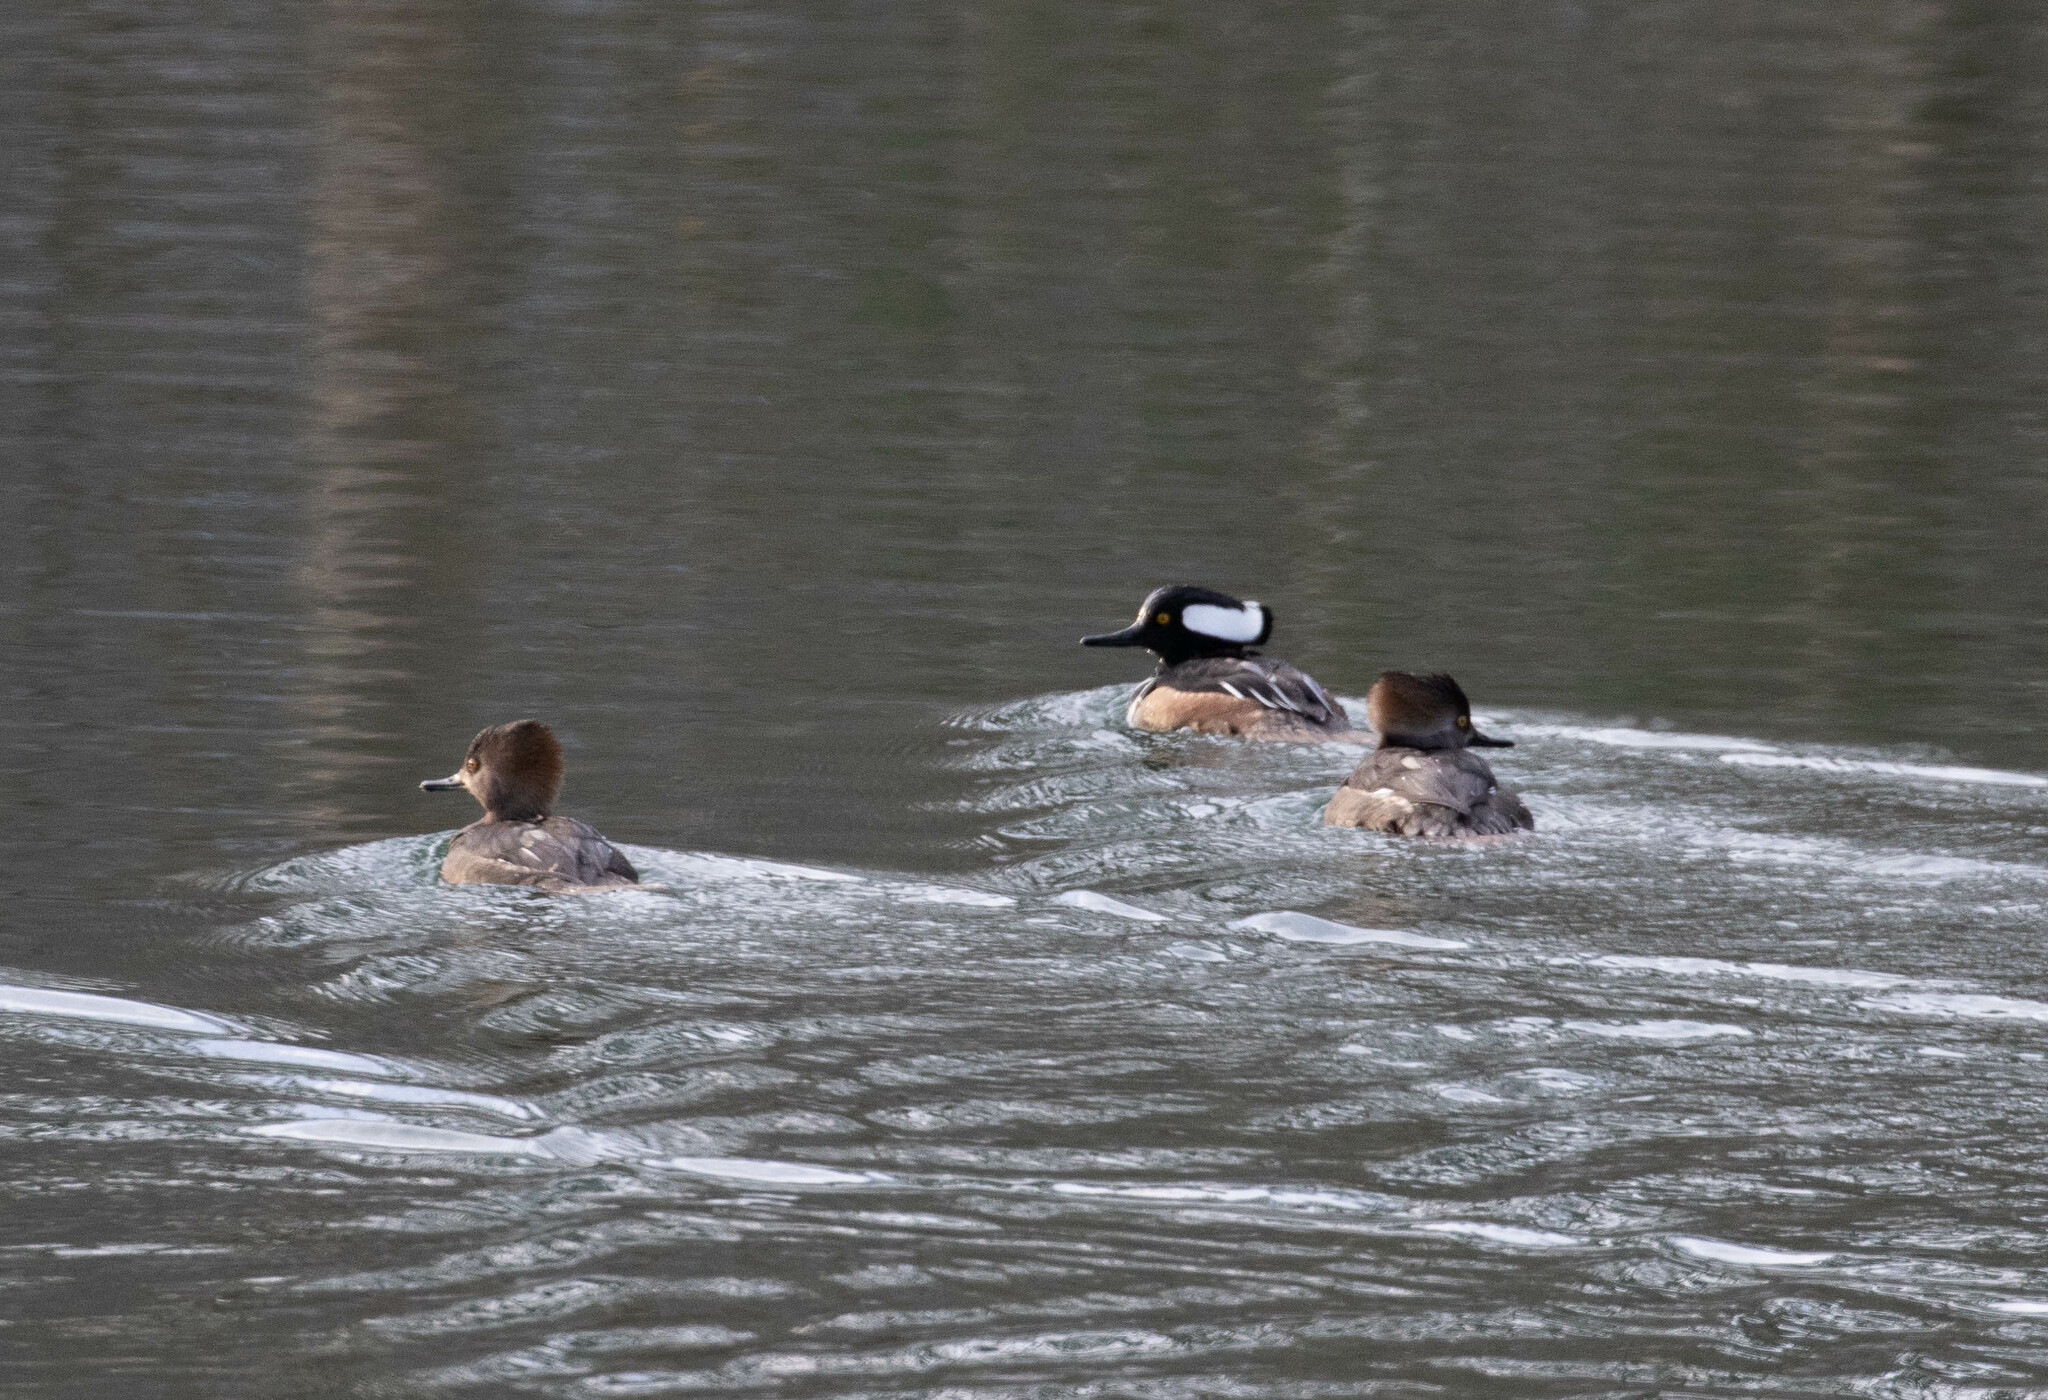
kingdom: Animalia
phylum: Chordata
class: Aves
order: Anseriformes
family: Anatidae
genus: Lophodytes
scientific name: Lophodytes cucullatus
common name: Hooded merganser
